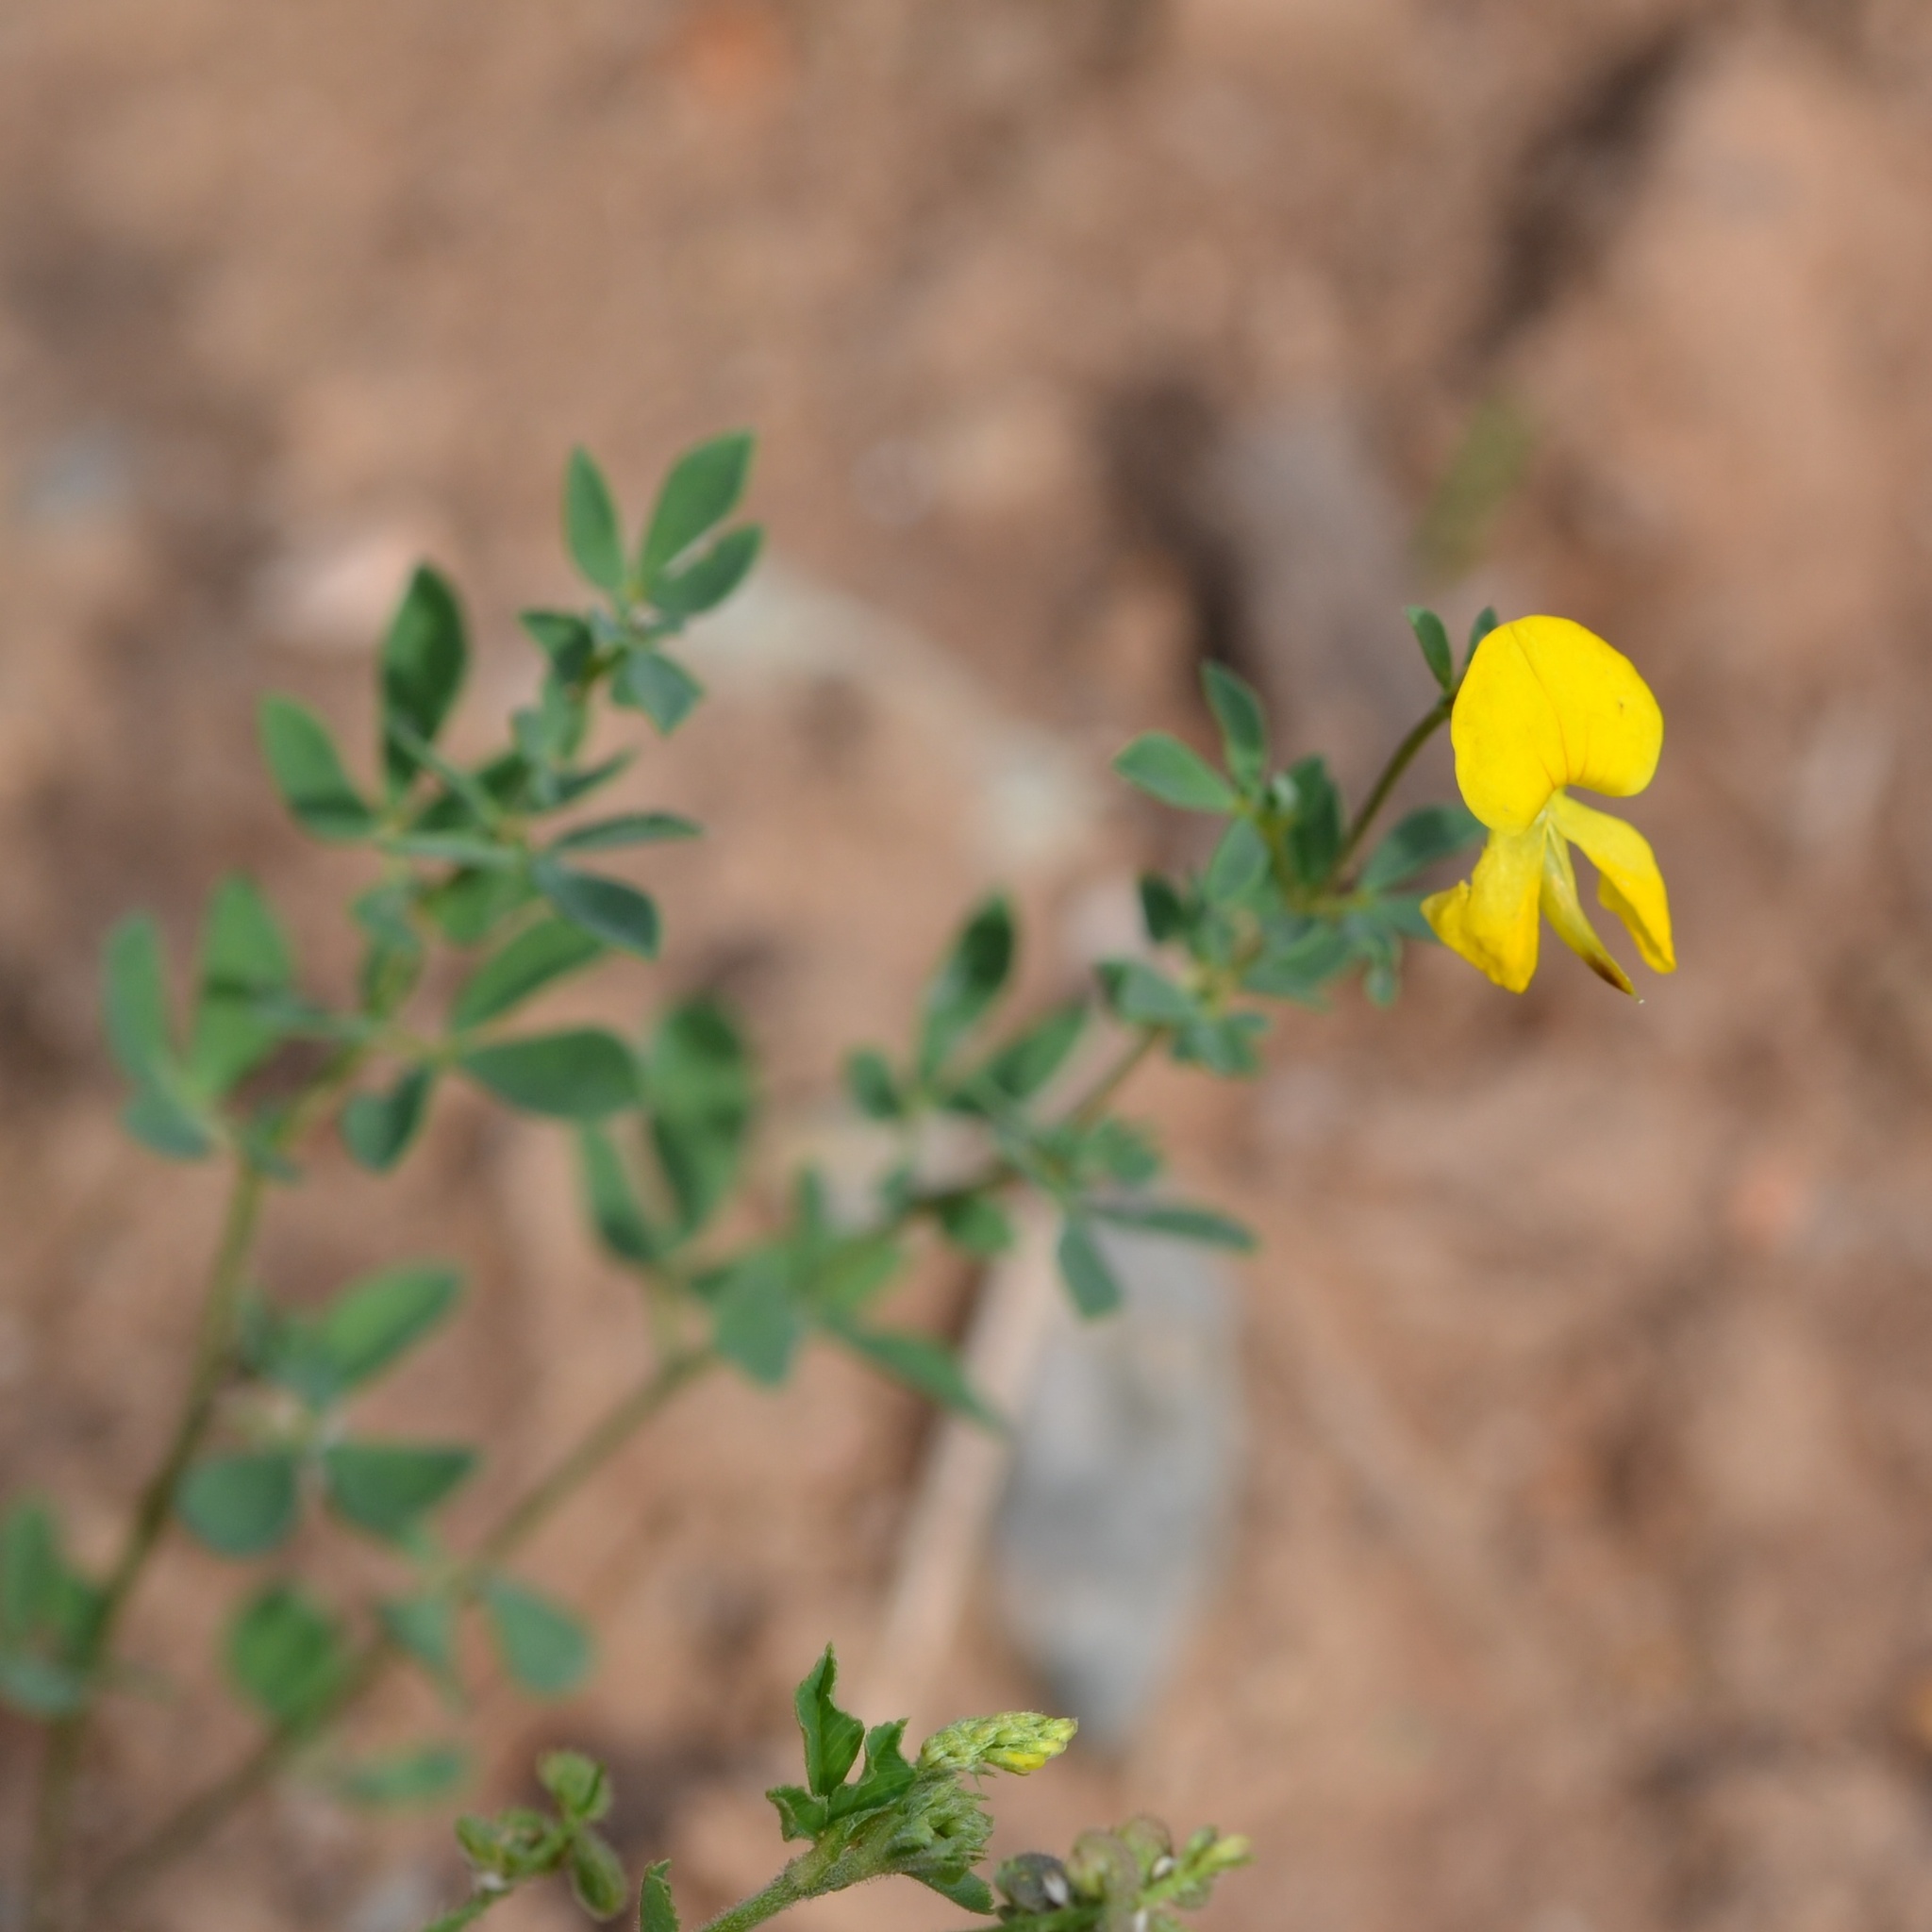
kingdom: Plantae
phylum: Tracheophyta
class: Magnoliopsida
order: Fabales
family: Fabaceae
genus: Lotus
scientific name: Lotus corniculatus
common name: Common bird's-foot-trefoil
